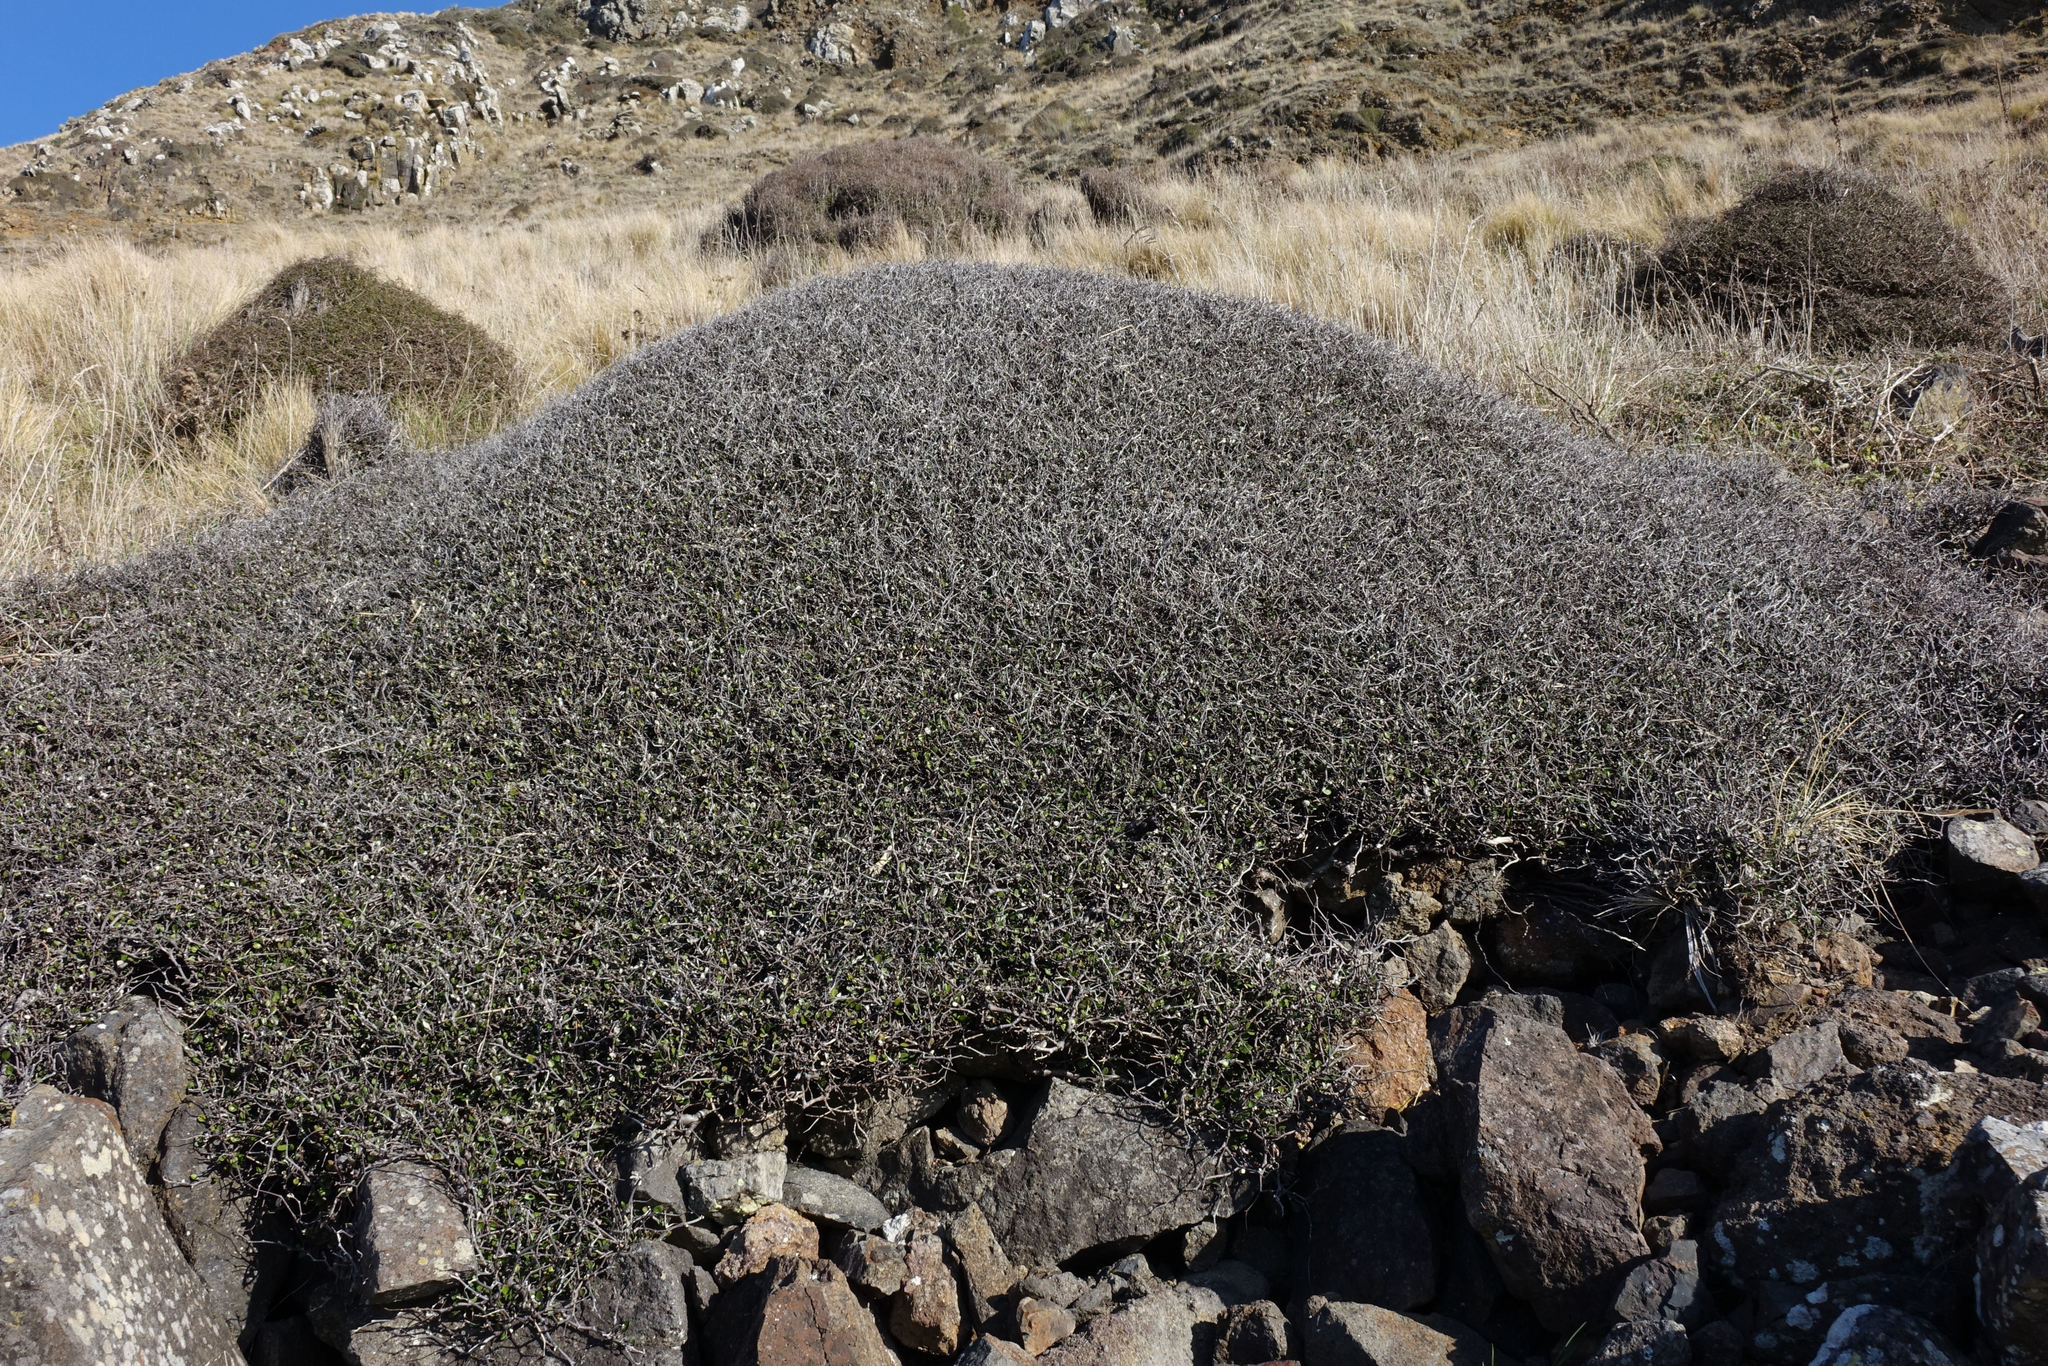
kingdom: Plantae
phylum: Tracheophyta
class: Magnoliopsida
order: Asterales
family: Argophyllaceae
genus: Corokia
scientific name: Corokia cotoneaster
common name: Wire nettingbush
